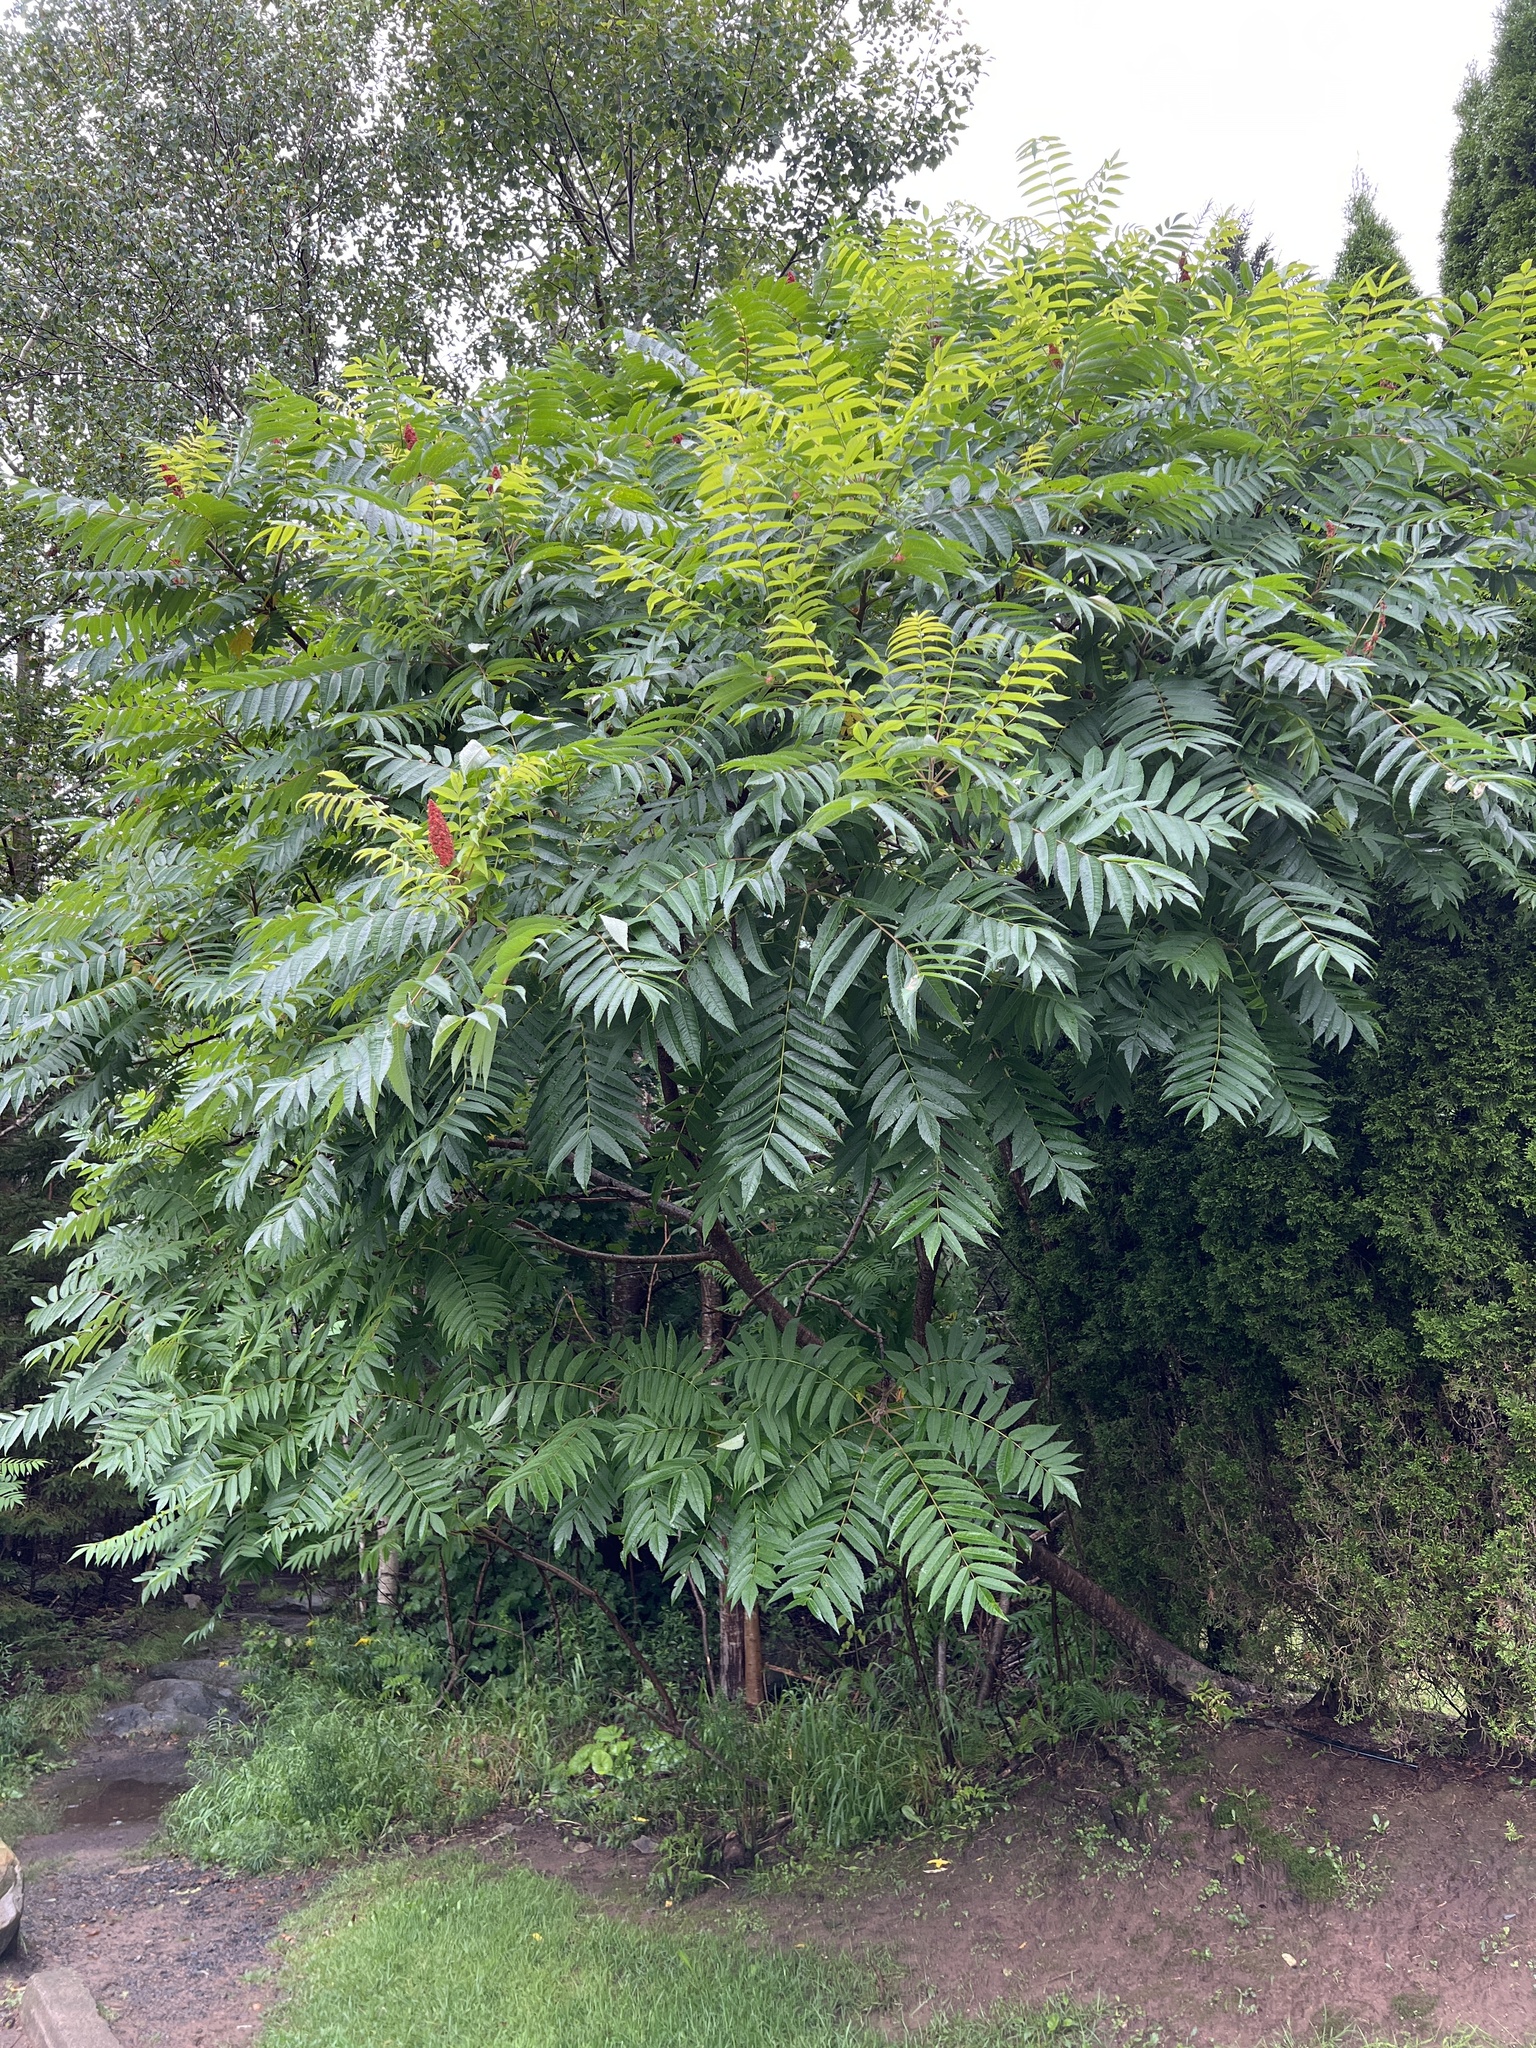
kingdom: Plantae
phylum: Tracheophyta
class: Magnoliopsida
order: Sapindales
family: Anacardiaceae
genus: Rhus
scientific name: Rhus typhina
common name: Staghorn sumac
